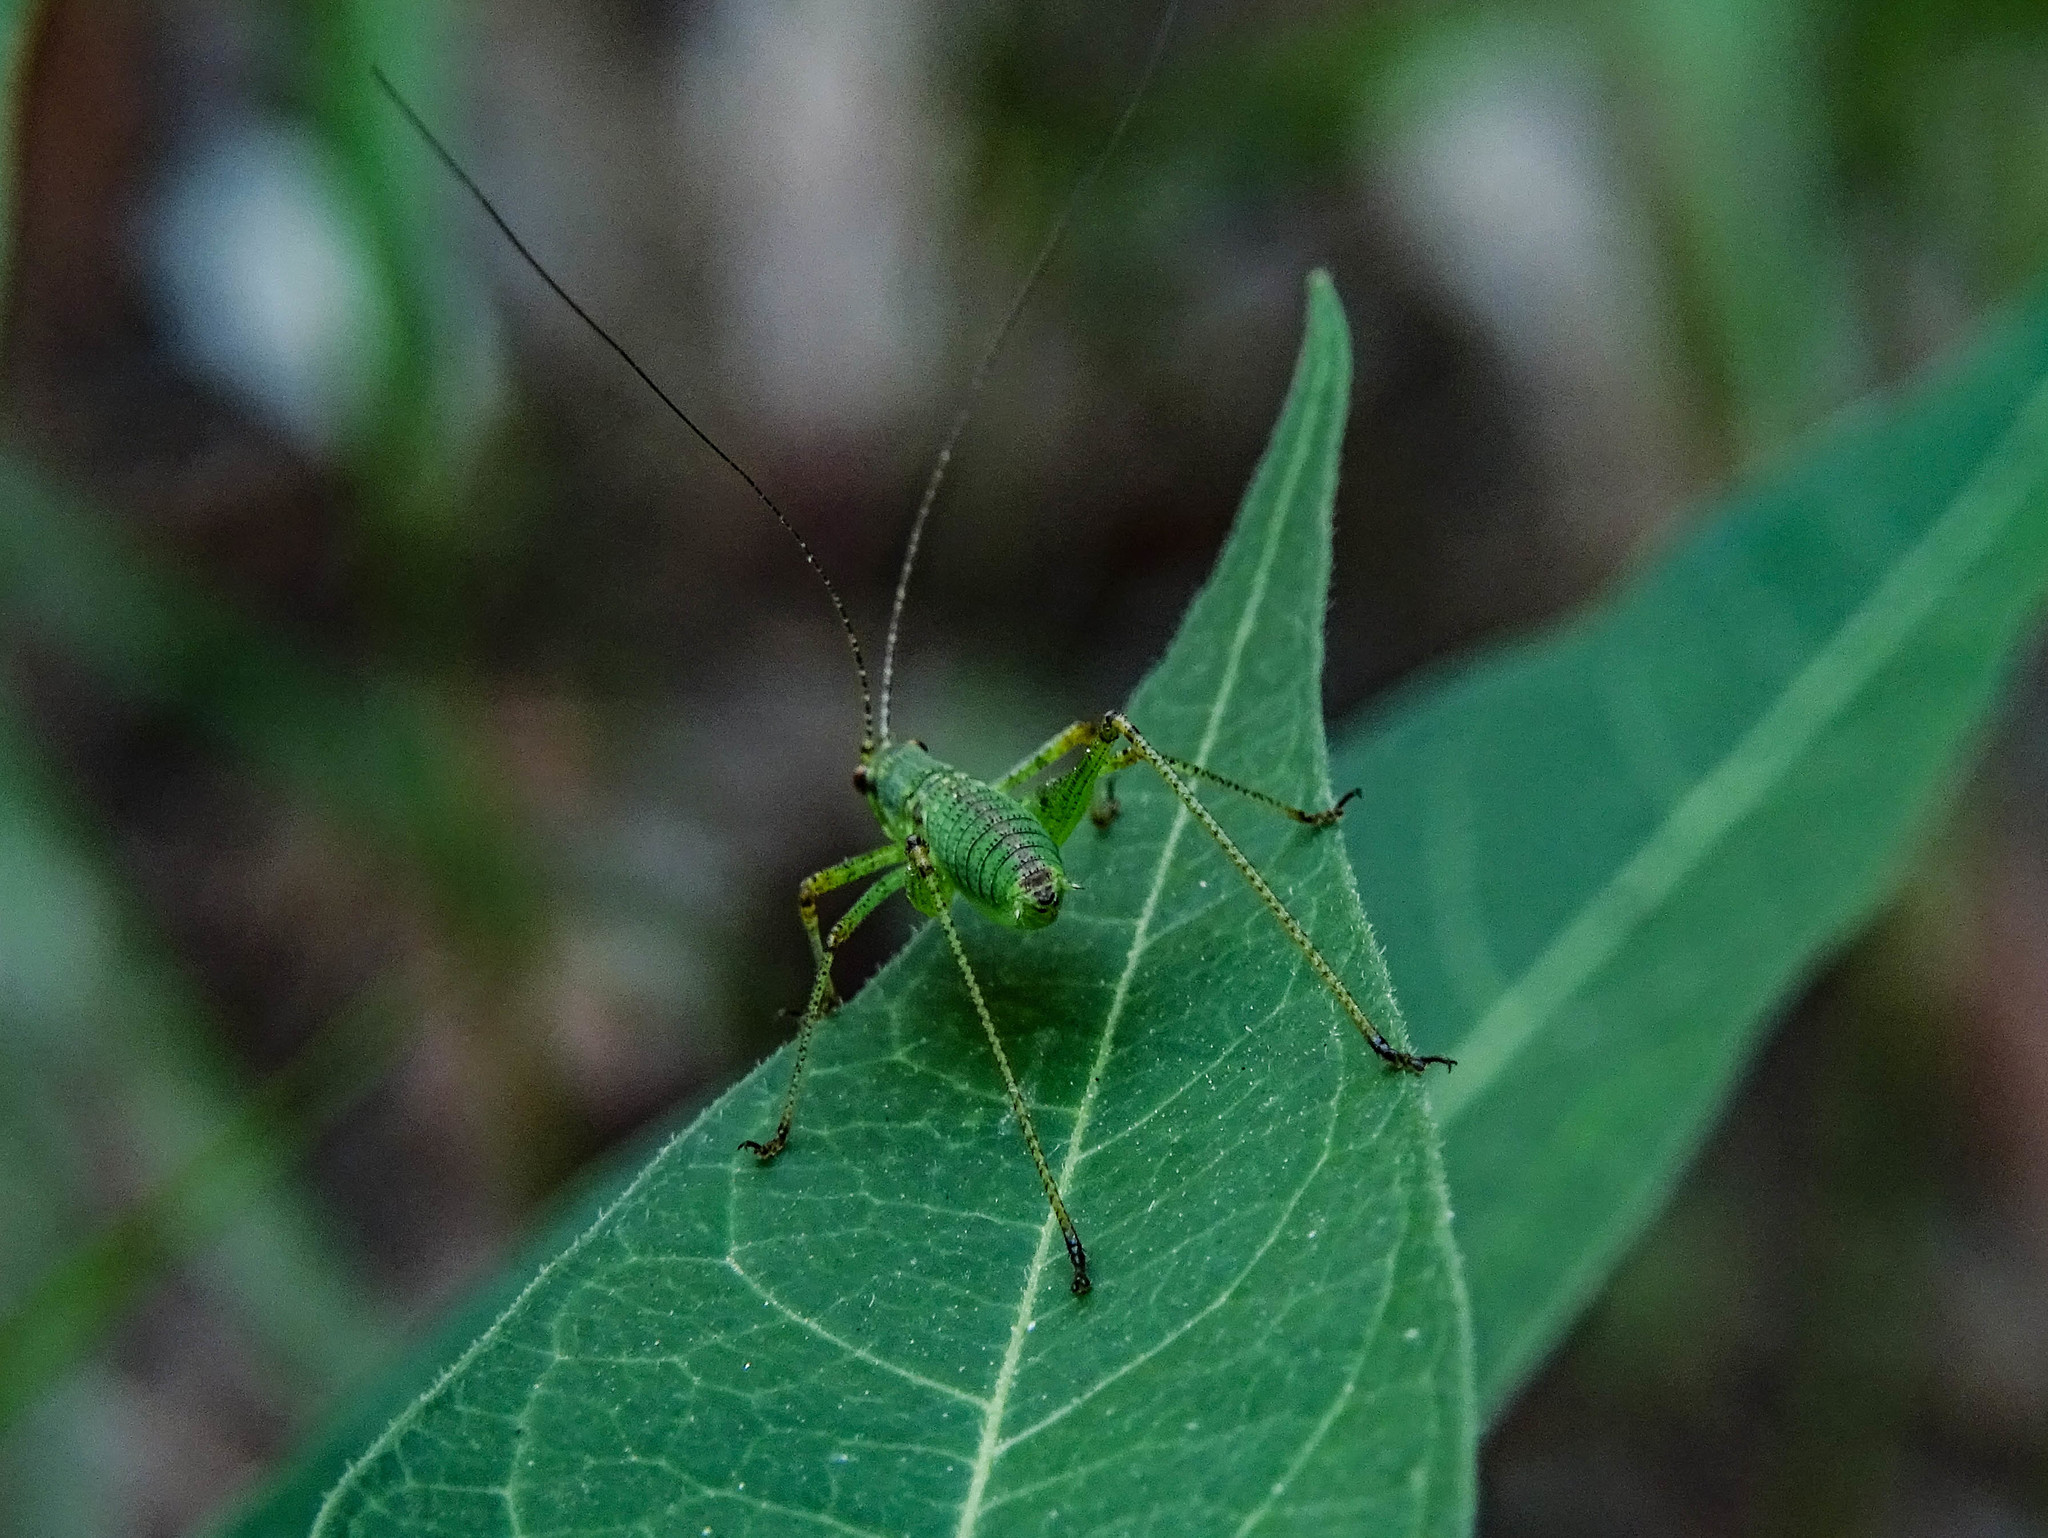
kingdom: Animalia
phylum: Arthropoda
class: Insecta
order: Orthoptera
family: Tettigoniidae
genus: Phaneroptera
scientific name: Phaneroptera nana
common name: Southern sickle bush-cricket
